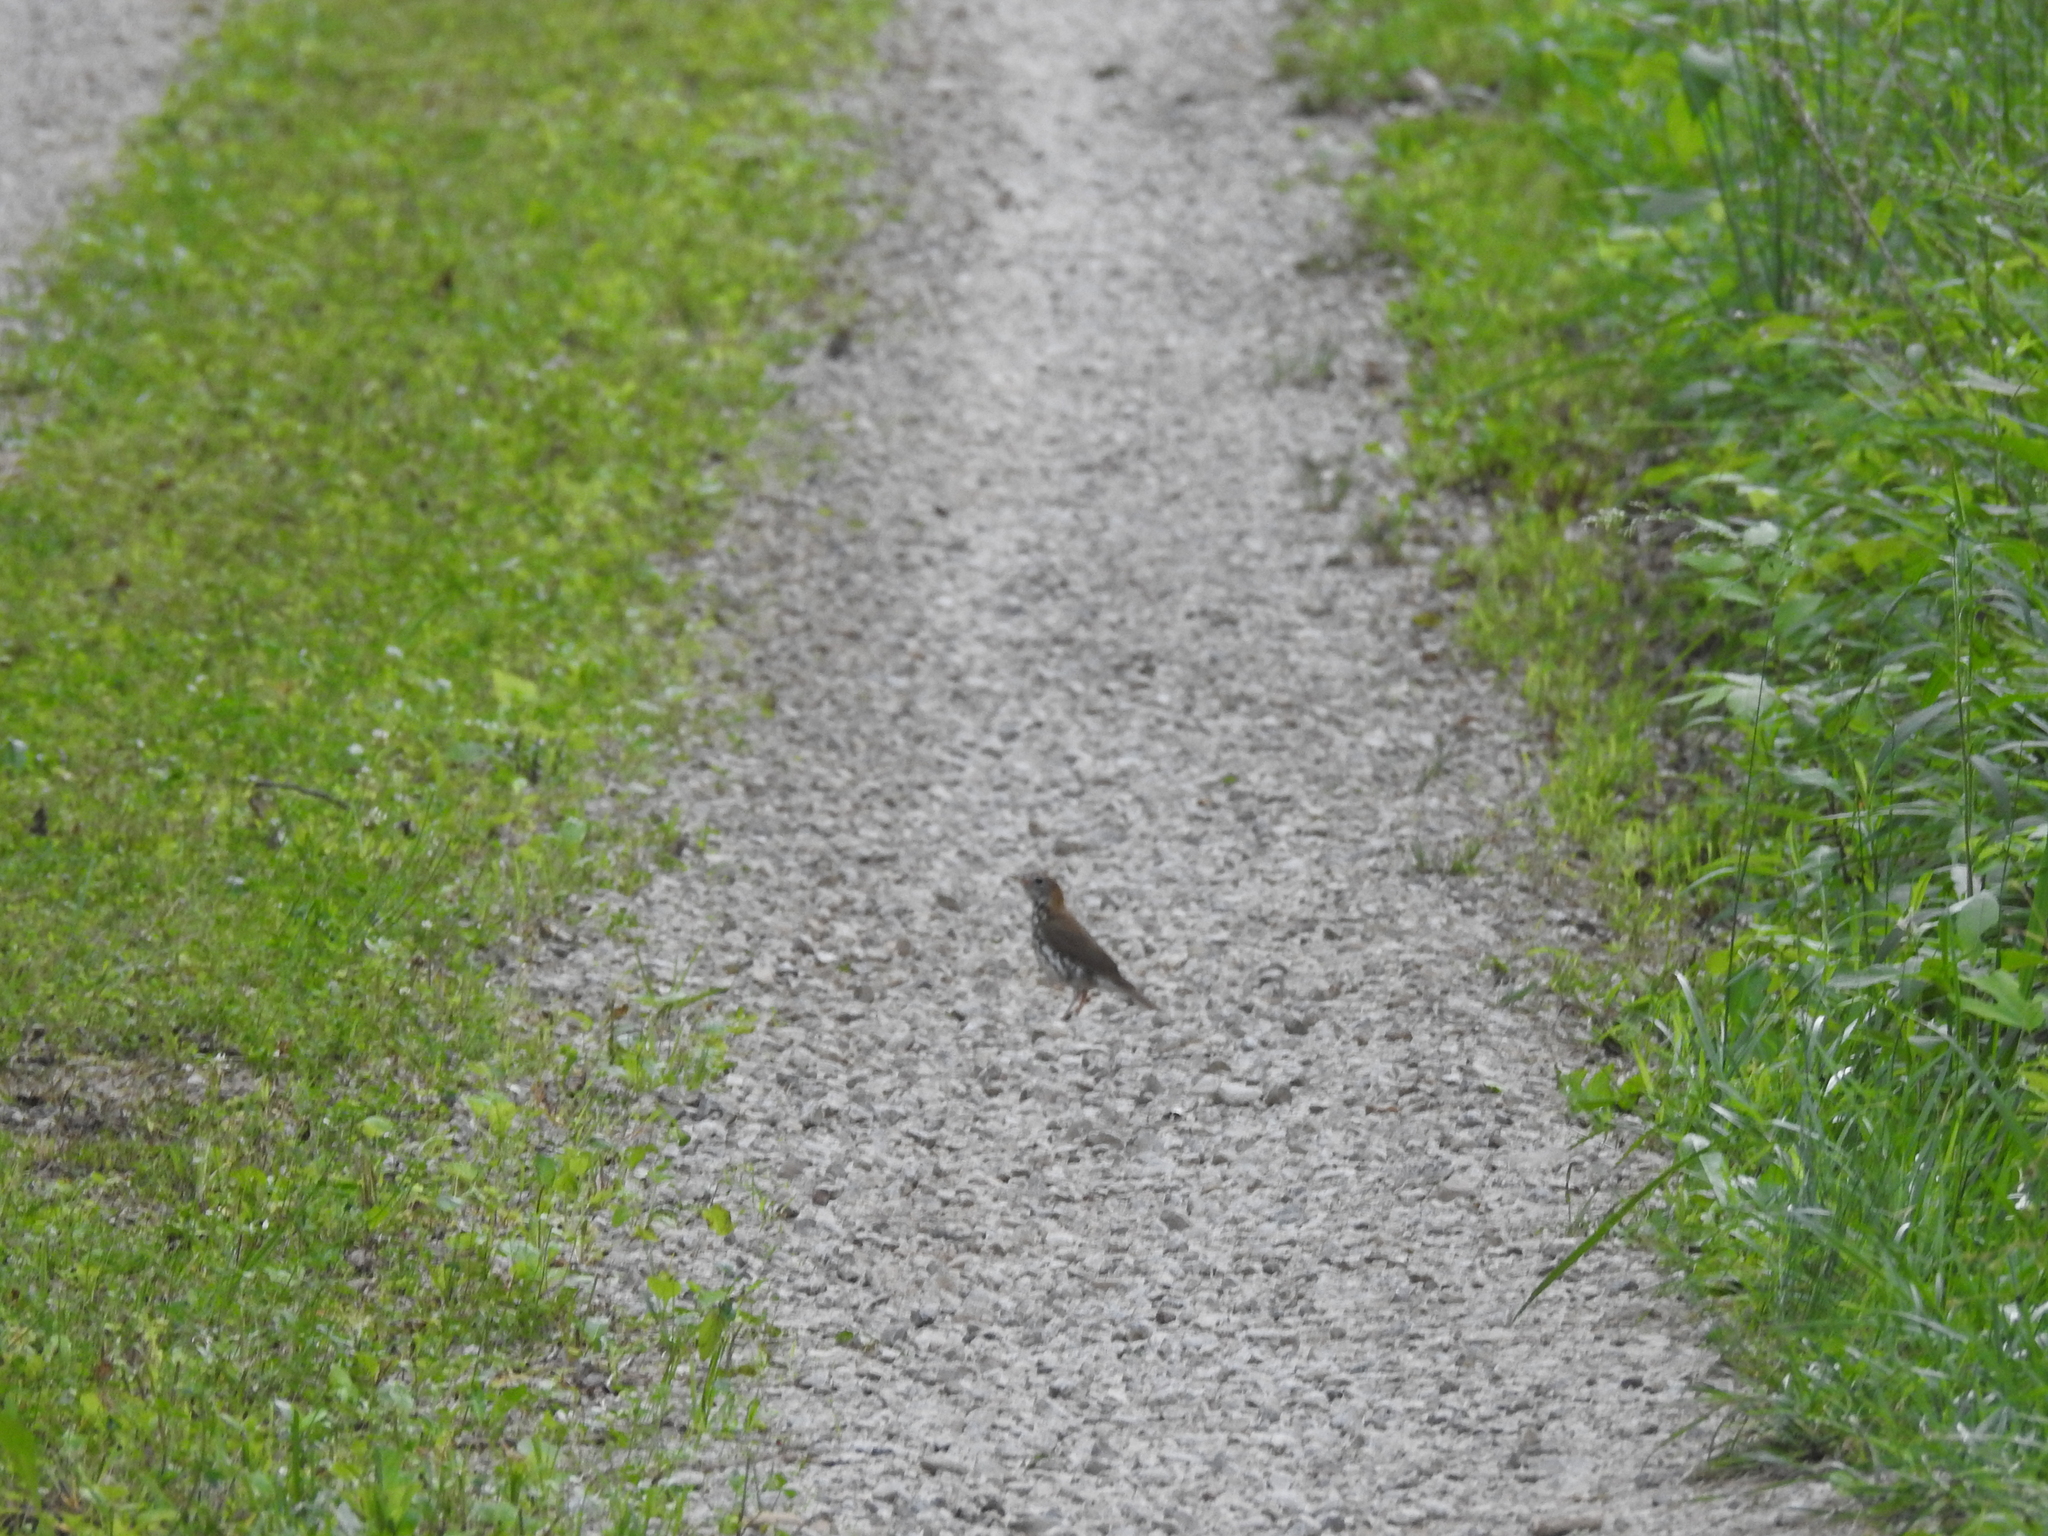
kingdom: Animalia
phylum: Chordata
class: Aves
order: Passeriformes
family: Turdidae
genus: Hylocichla
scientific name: Hylocichla mustelina
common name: Wood thrush
